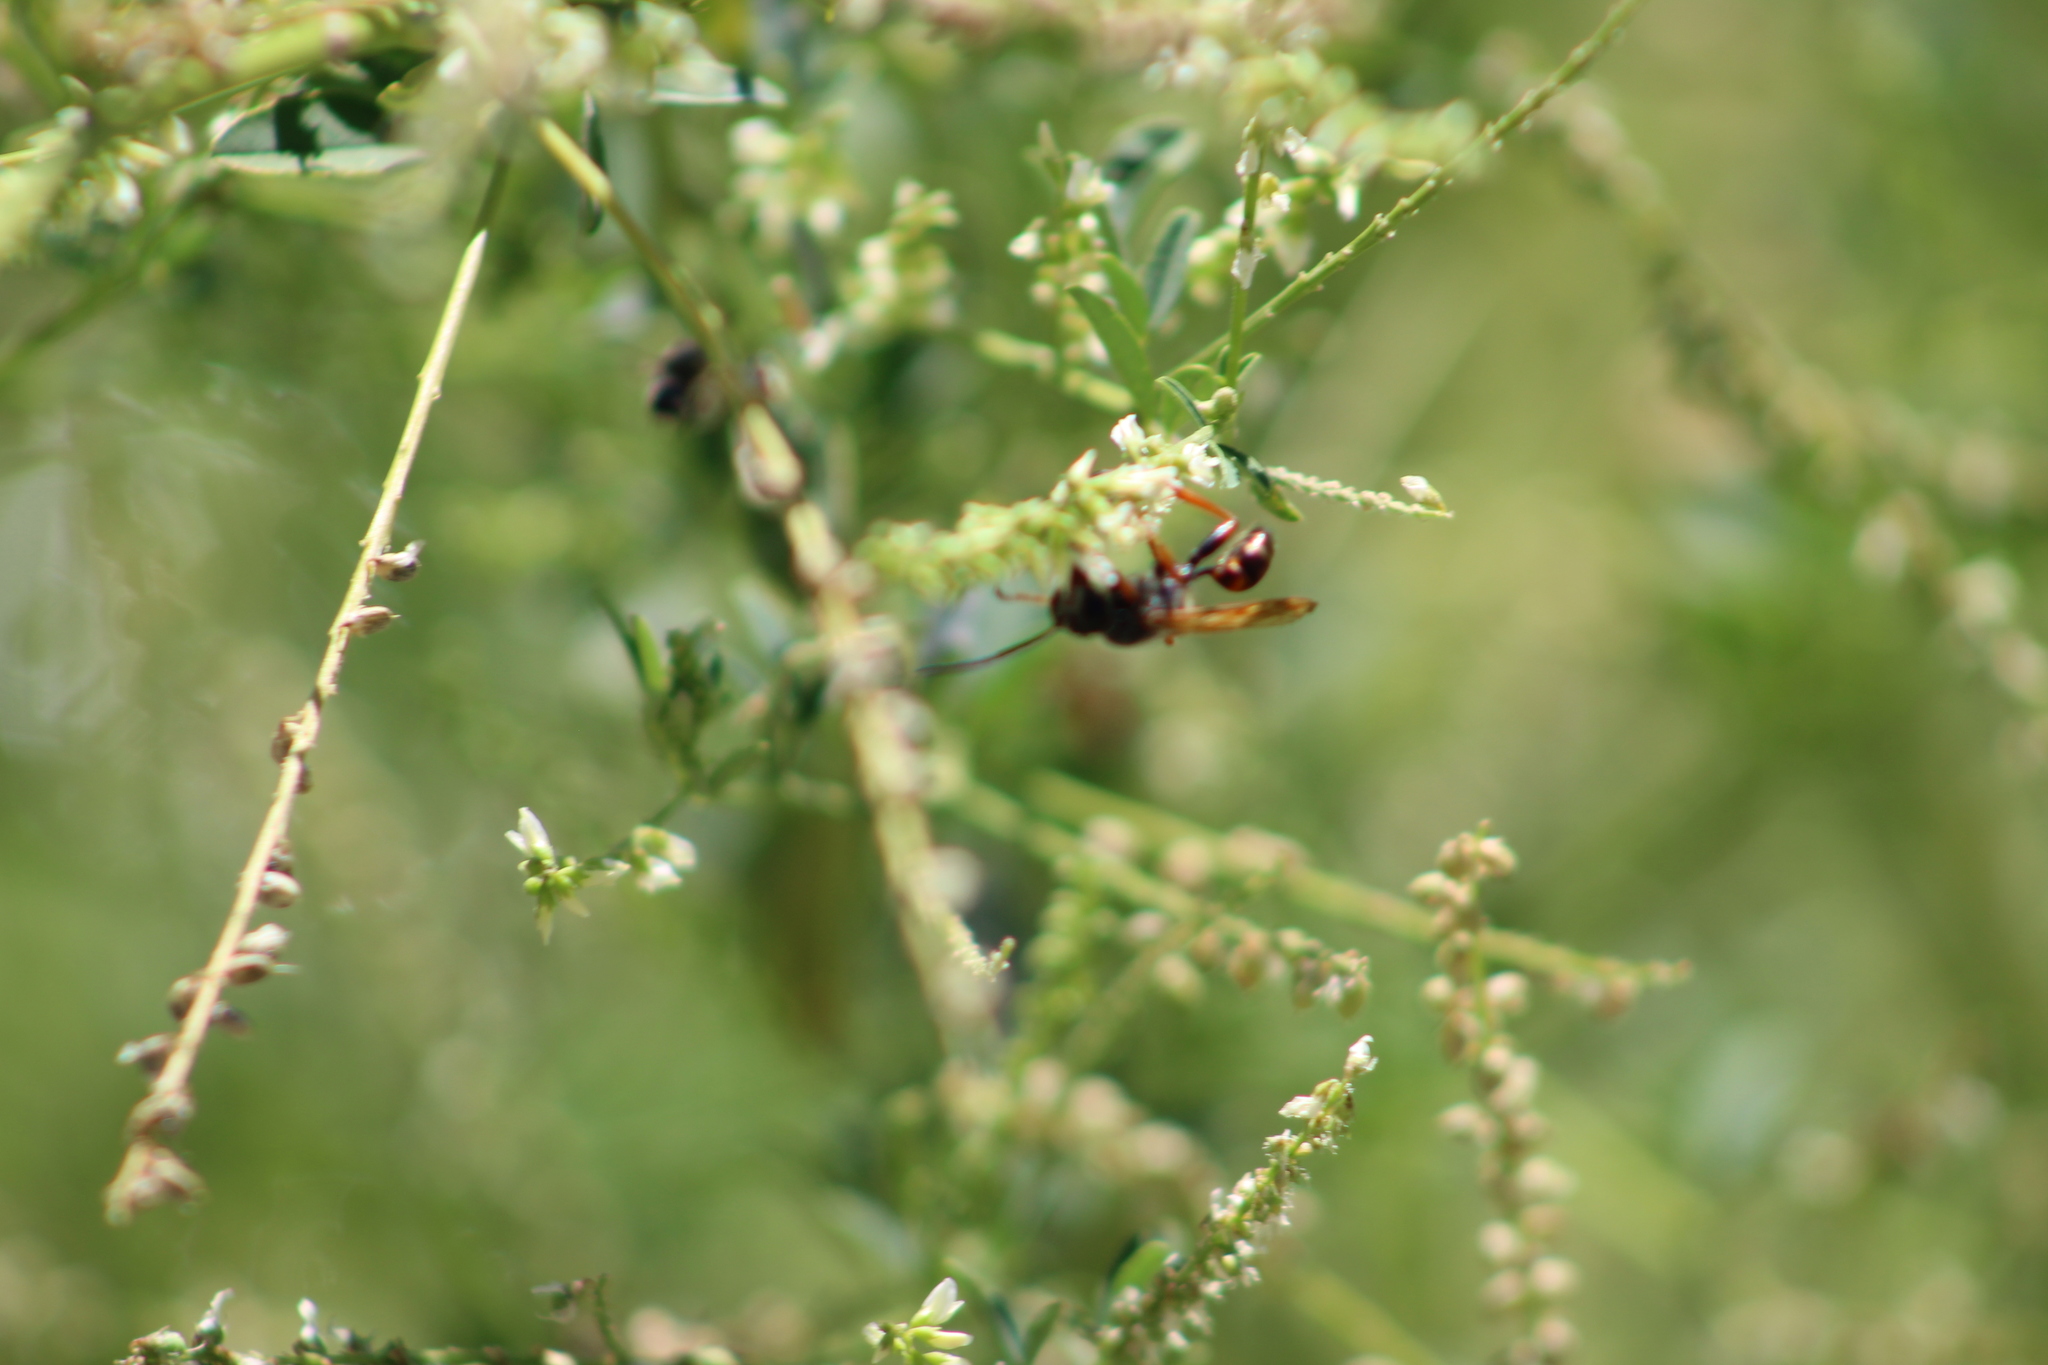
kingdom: Animalia
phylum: Arthropoda
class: Insecta
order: Hymenoptera
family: Sphecidae
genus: Isodontia
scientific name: Isodontia elegans
